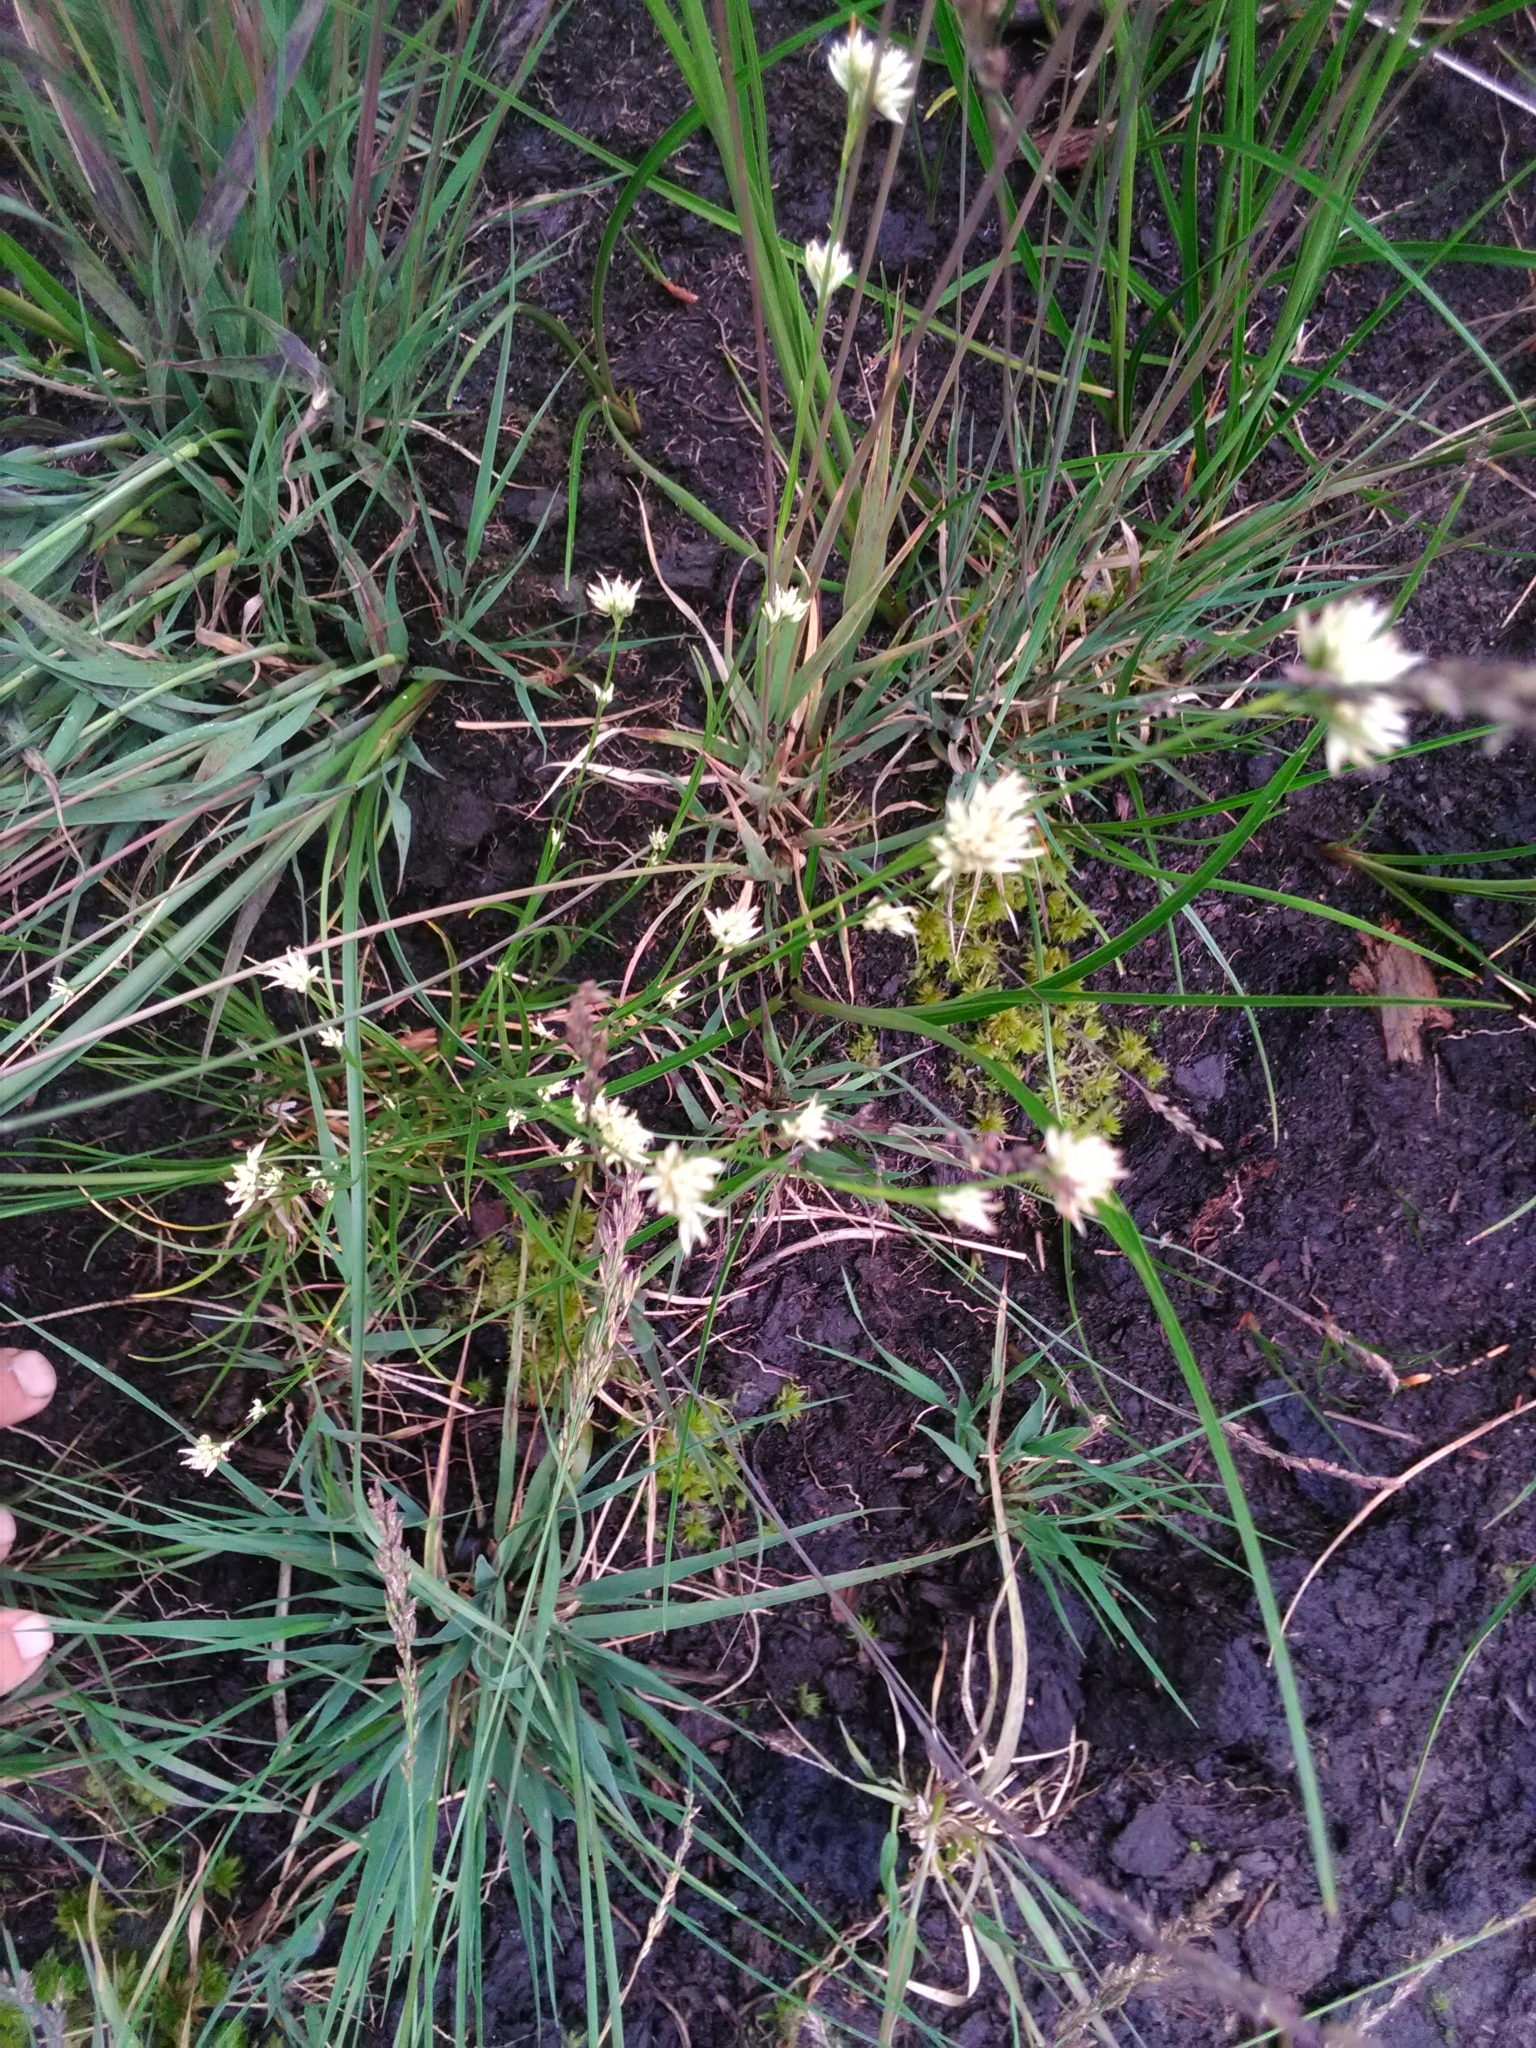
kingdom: Plantae
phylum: Tracheophyta
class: Liliopsida
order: Poales
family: Cyperaceae
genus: Rhynchospora
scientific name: Rhynchospora alba
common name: White beak-sedge
